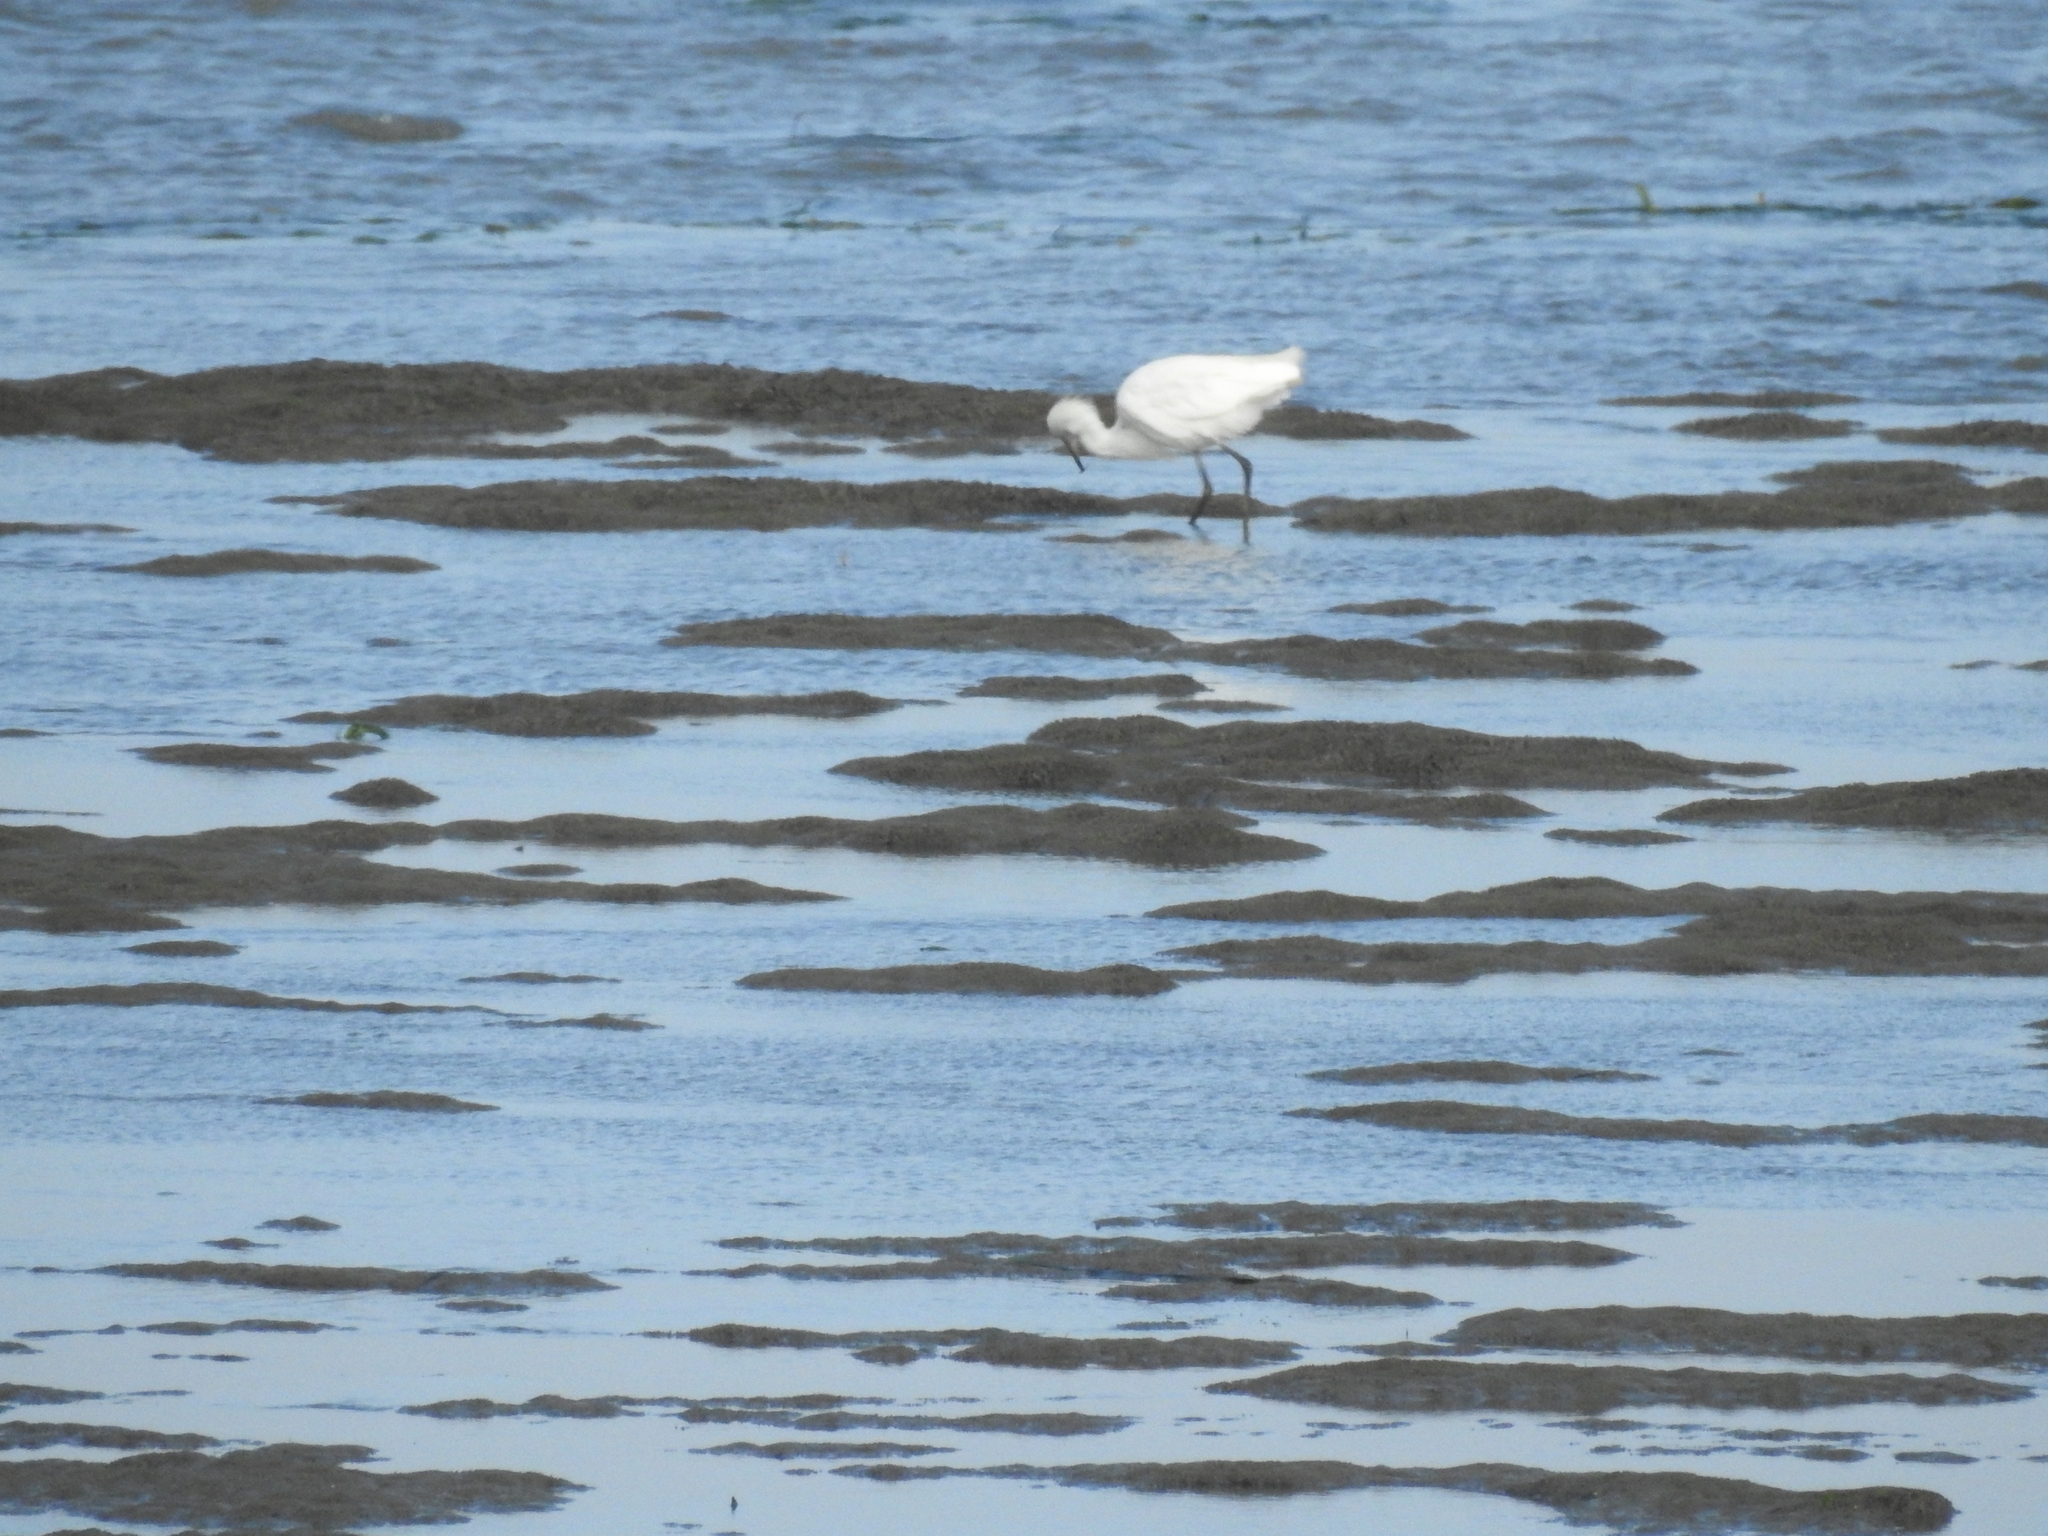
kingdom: Animalia
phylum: Chordata
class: Aves
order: Pelecaniformes
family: Ardeidae
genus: Egretta
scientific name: Egretta thula
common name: Snowy egret
